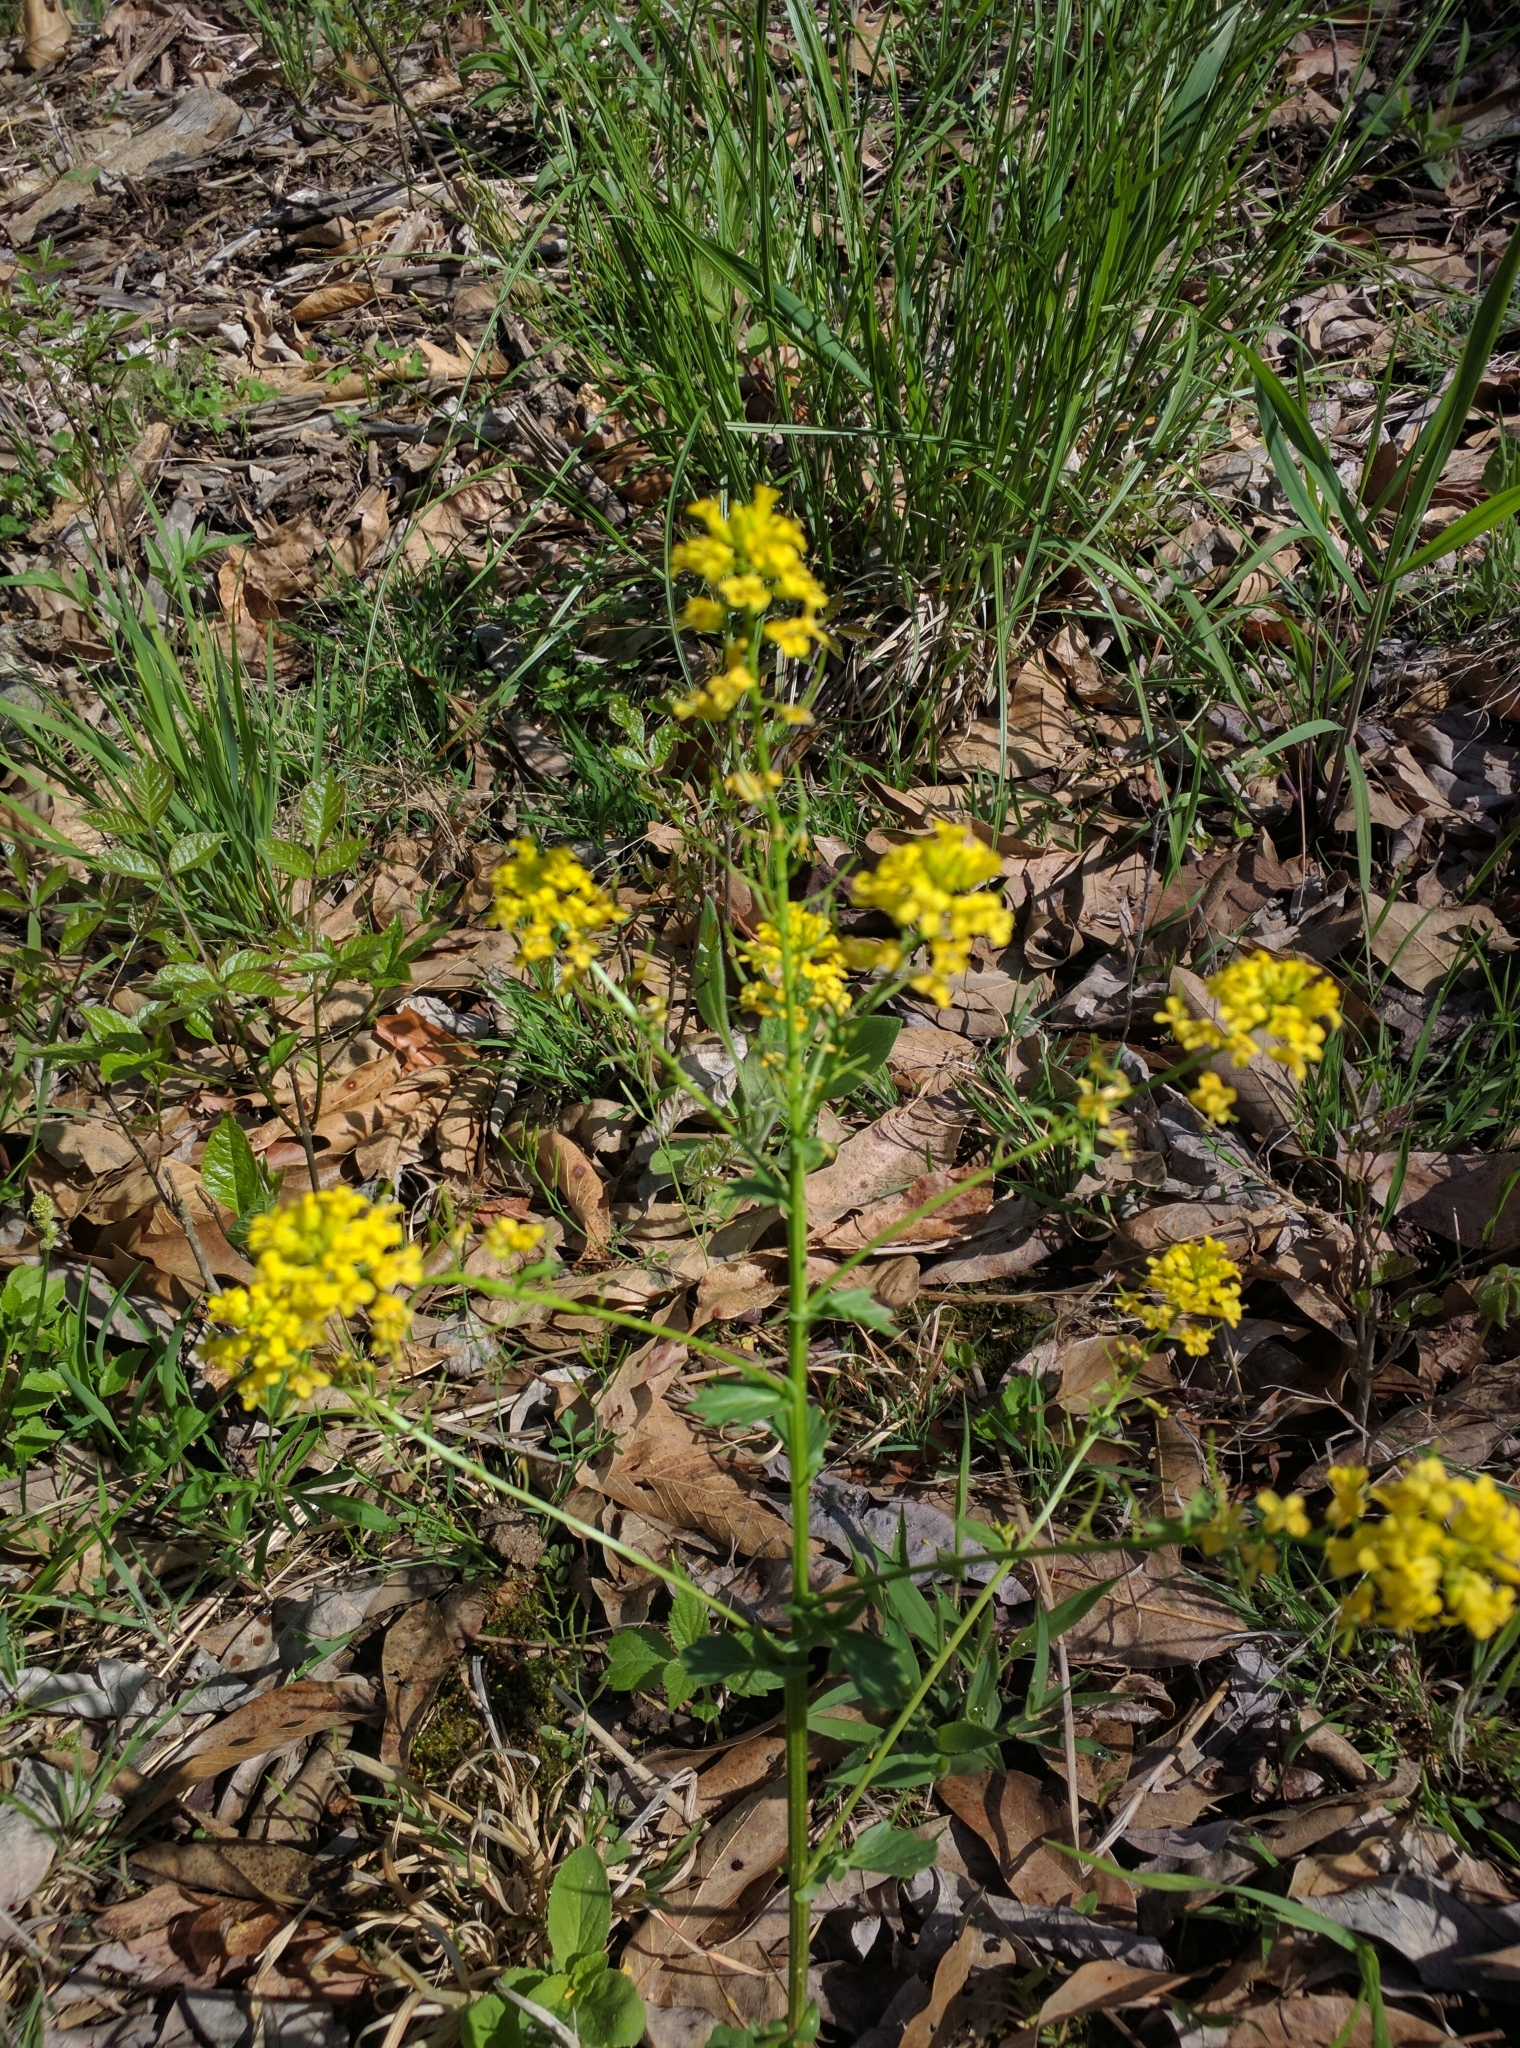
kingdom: Plantae
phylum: Tracheophyta
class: Magnoliopsida
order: Brassicales
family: Brassicaceae
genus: Barbarea
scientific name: Barbarea vulgaris
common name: Cressy-greens
